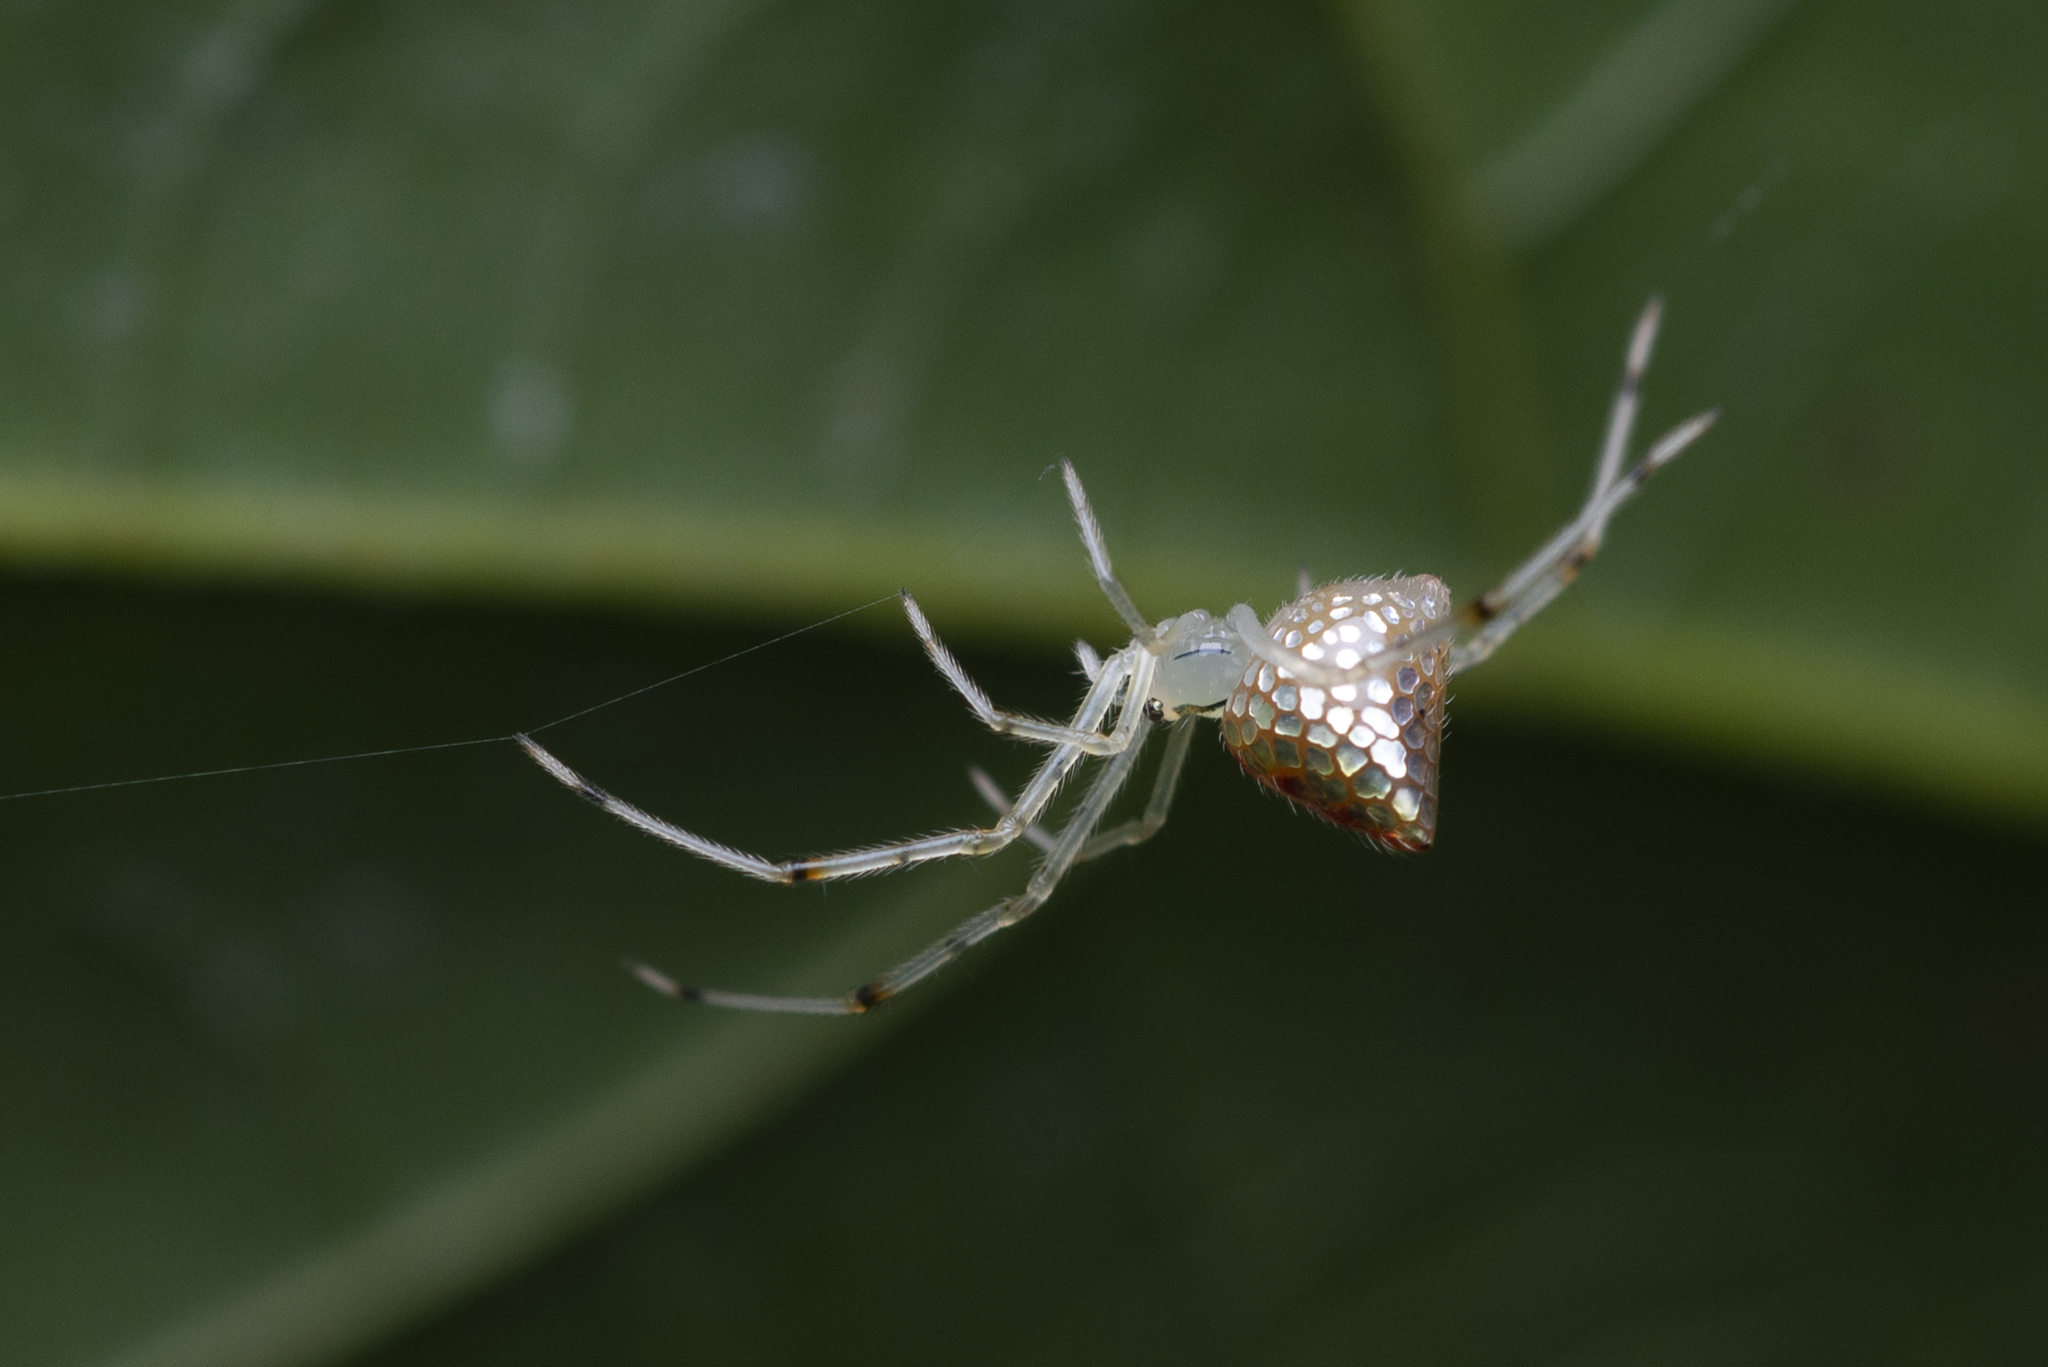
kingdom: Animalia
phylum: Arthropoda
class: Arachnida
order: Araneae
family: Theridiidae
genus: Thwaitesia
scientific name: Thwaitesia margaritifera
